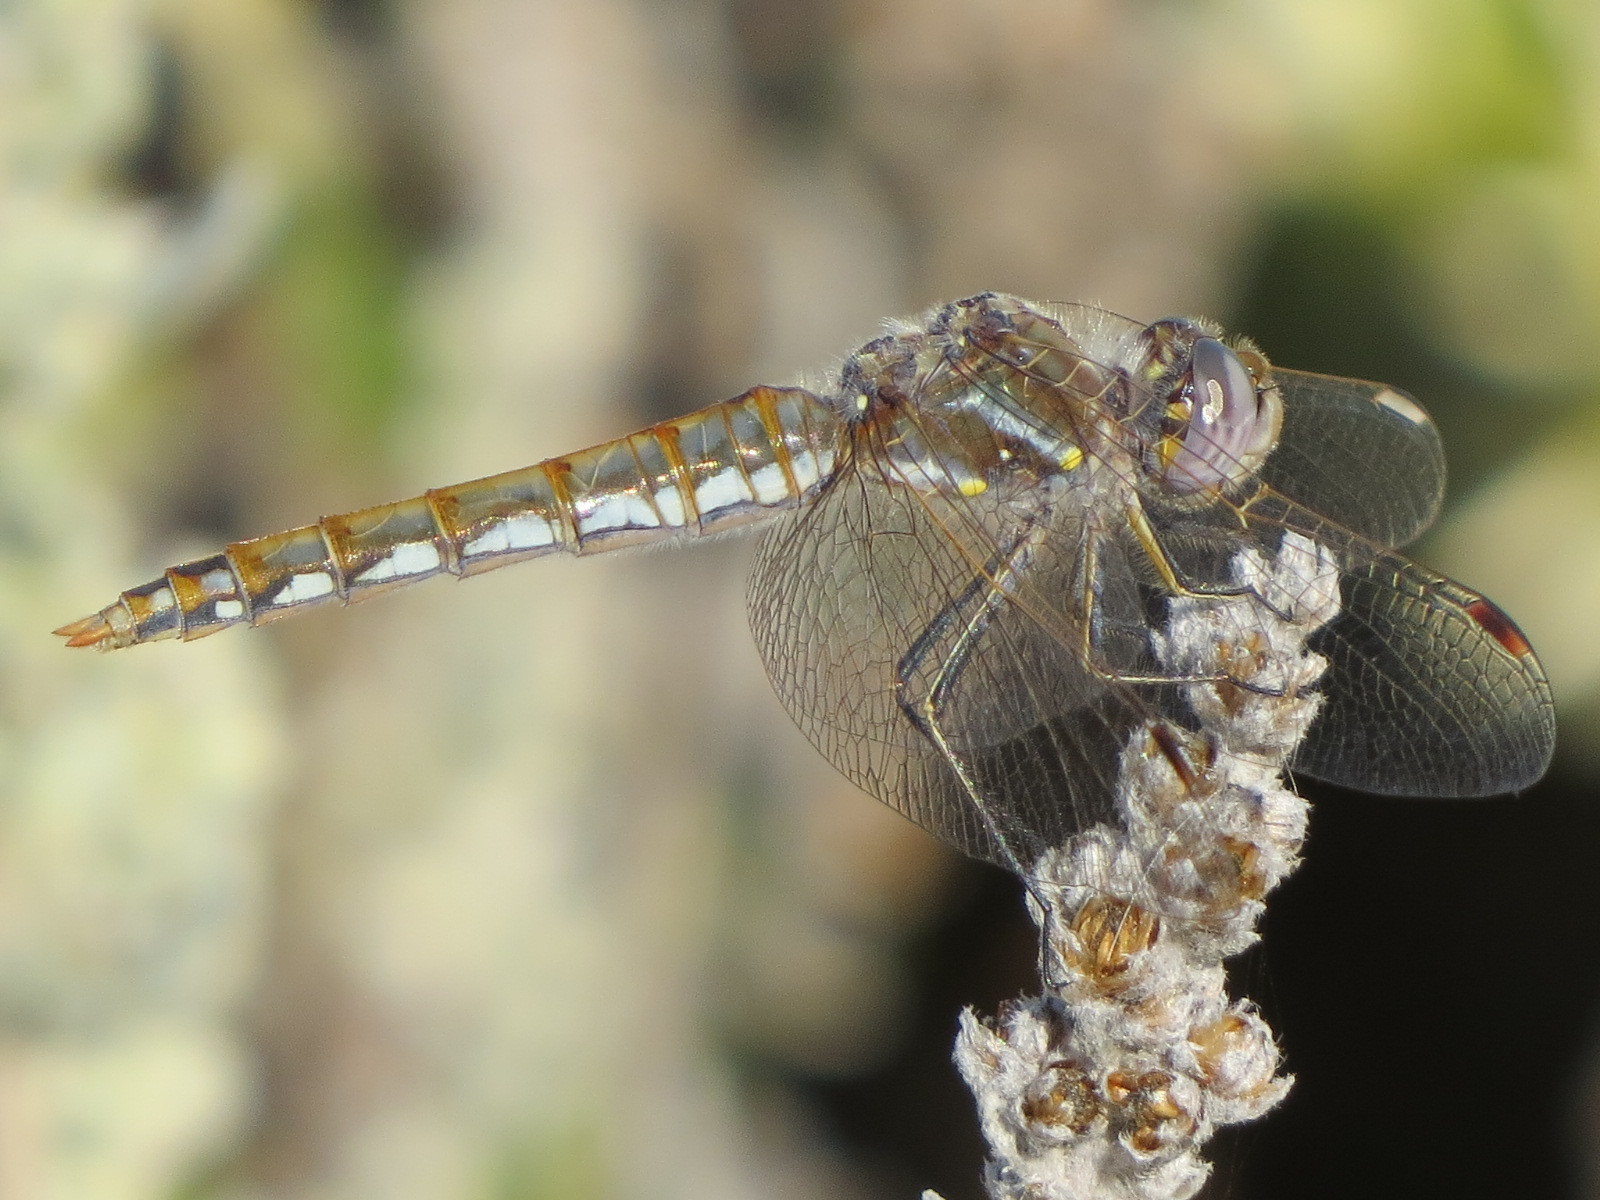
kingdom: Animalia
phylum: Arthropoda
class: Insecta
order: Odonata
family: Libellulidae
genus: Sympetrum
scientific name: Sympetrum corruptum
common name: Variegated meadowhawk
